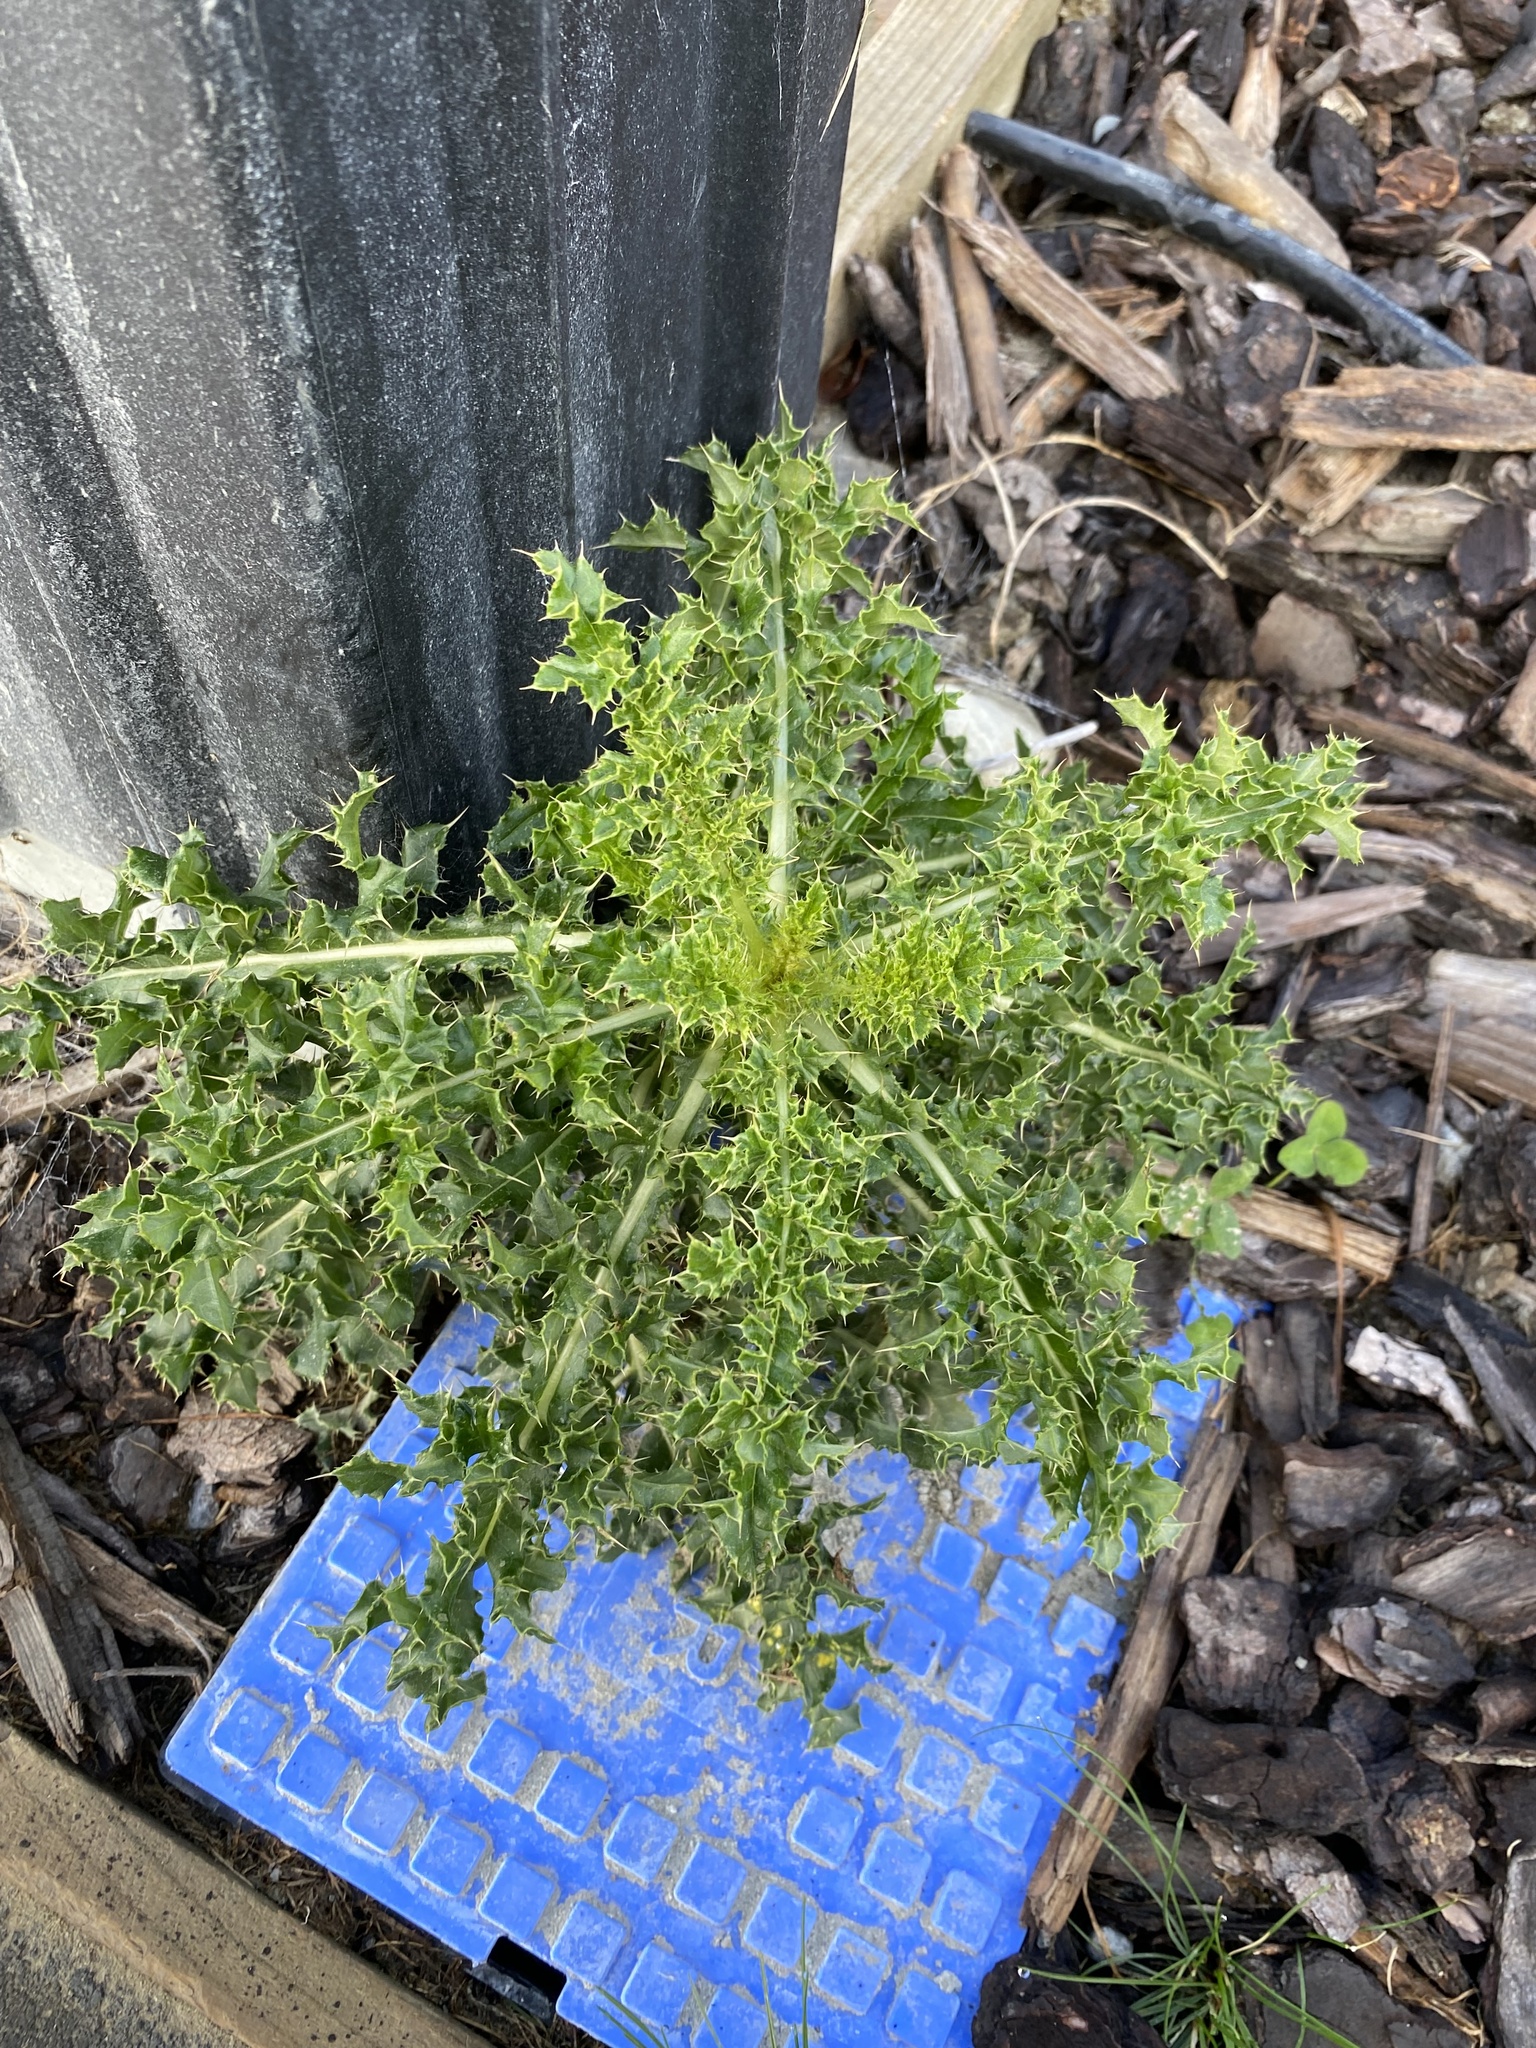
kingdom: Plantae
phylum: Tracheophyta
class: Magnoliopsida
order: Asterales
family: Asteraceae
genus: Cirsium
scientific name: Cirsium arvense
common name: Creeping thistle
